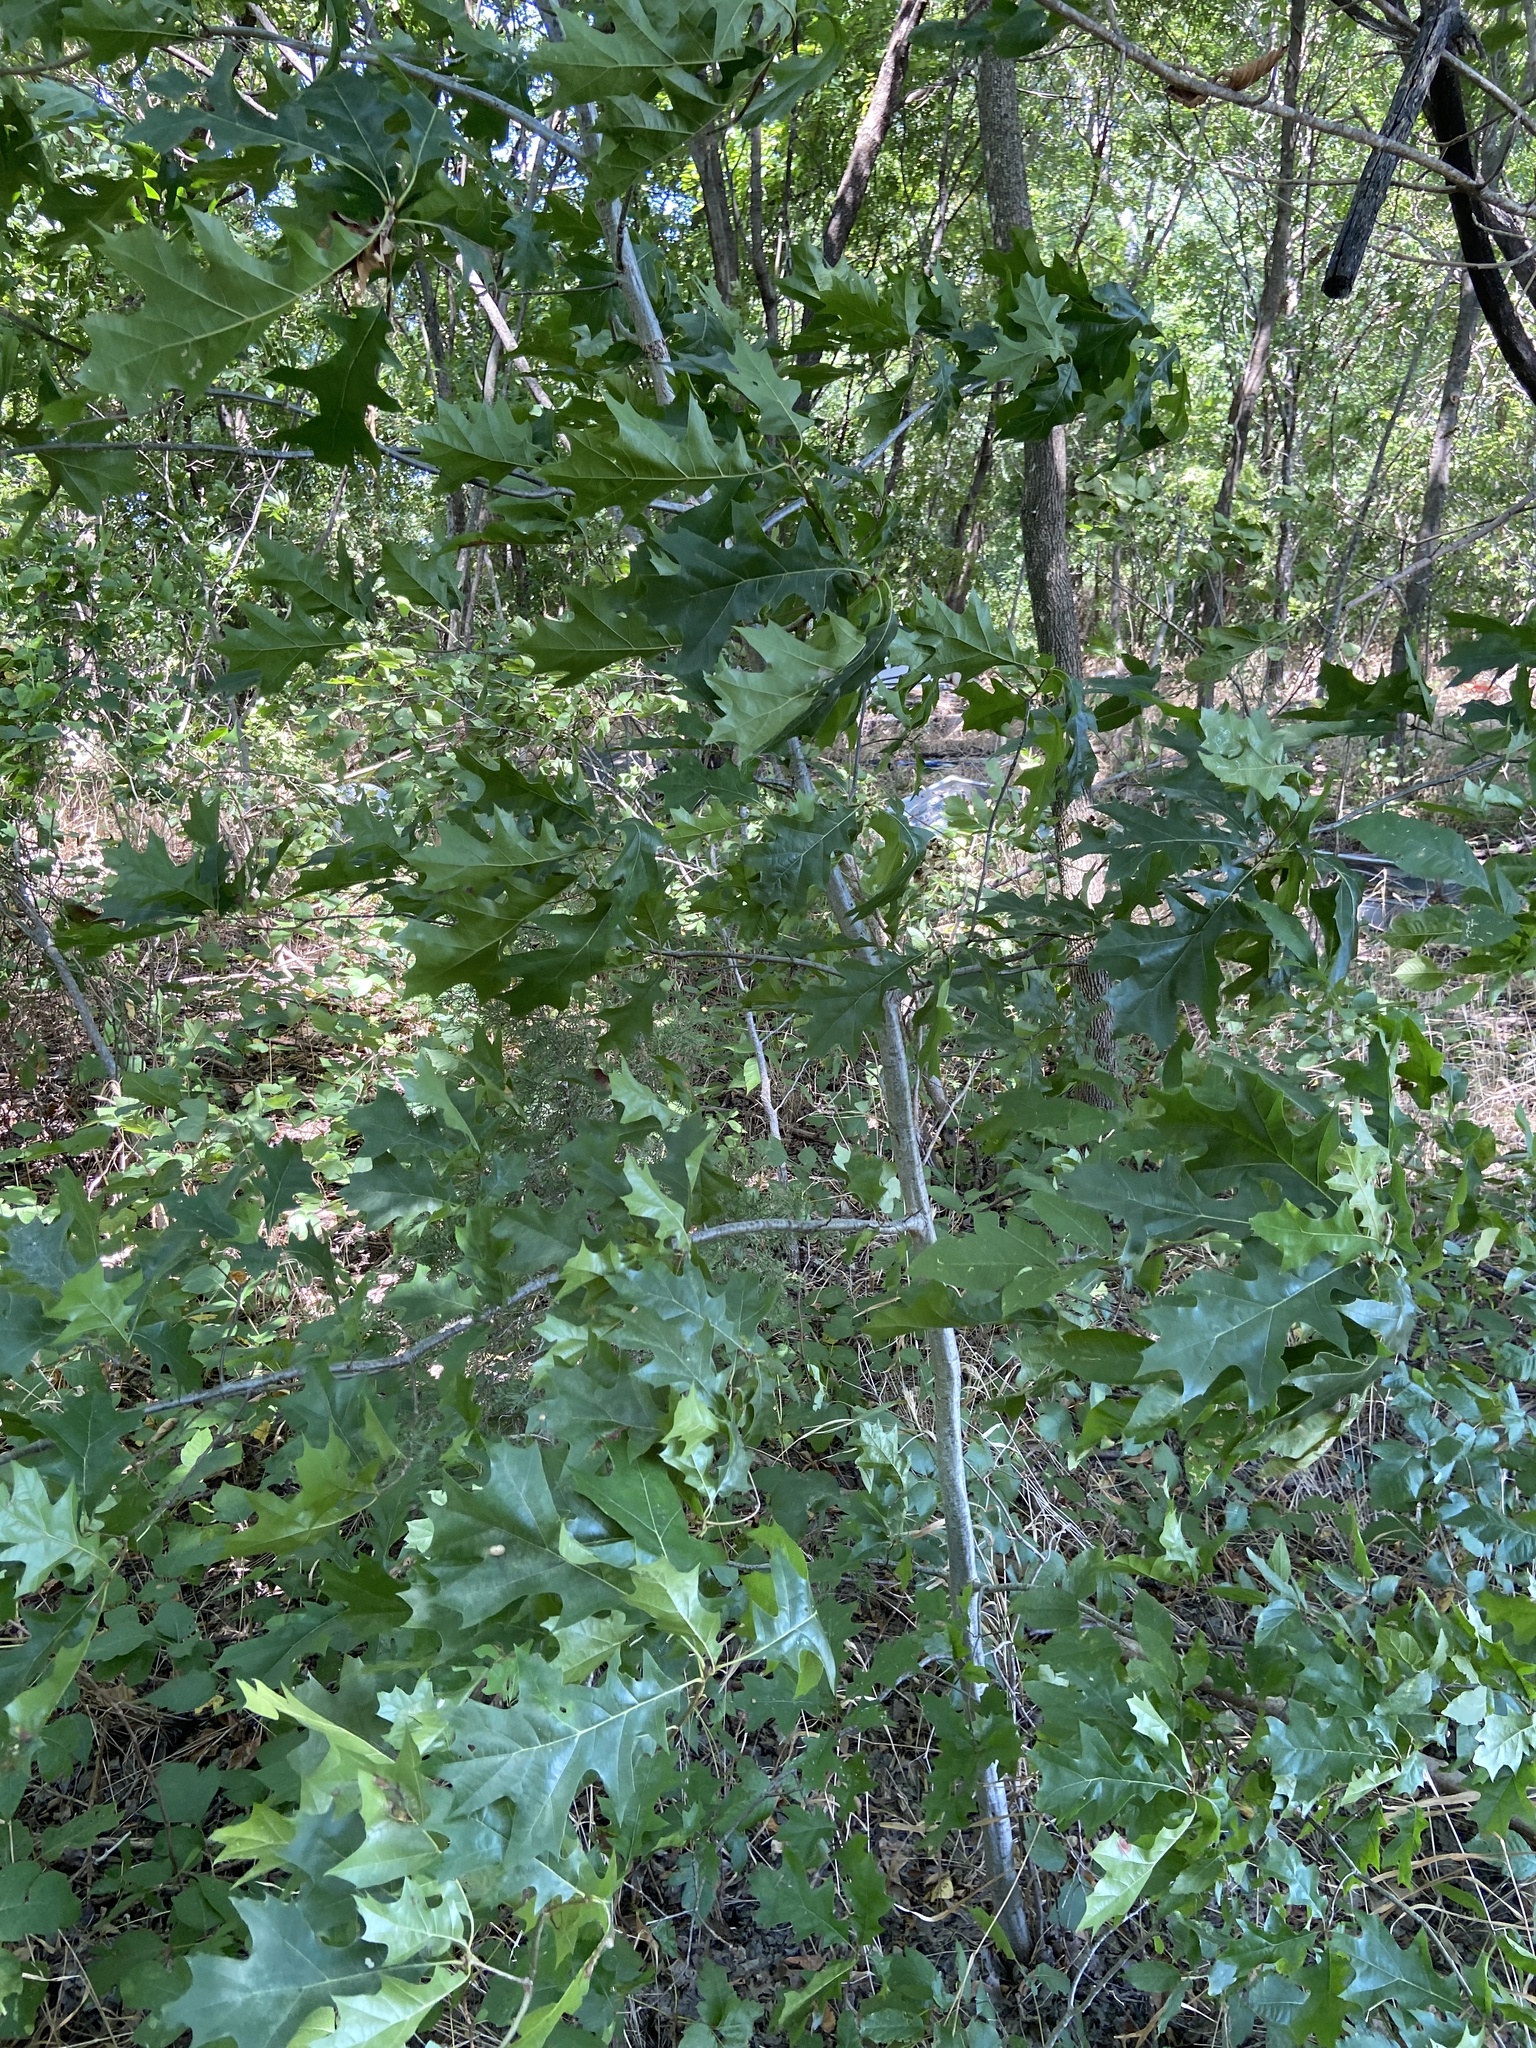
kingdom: Plantae
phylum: Tracheophyta
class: Magnoliopsida
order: Fagales
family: Fagaceae
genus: Quercus
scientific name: Quercus shumardii
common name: Shumard oak
